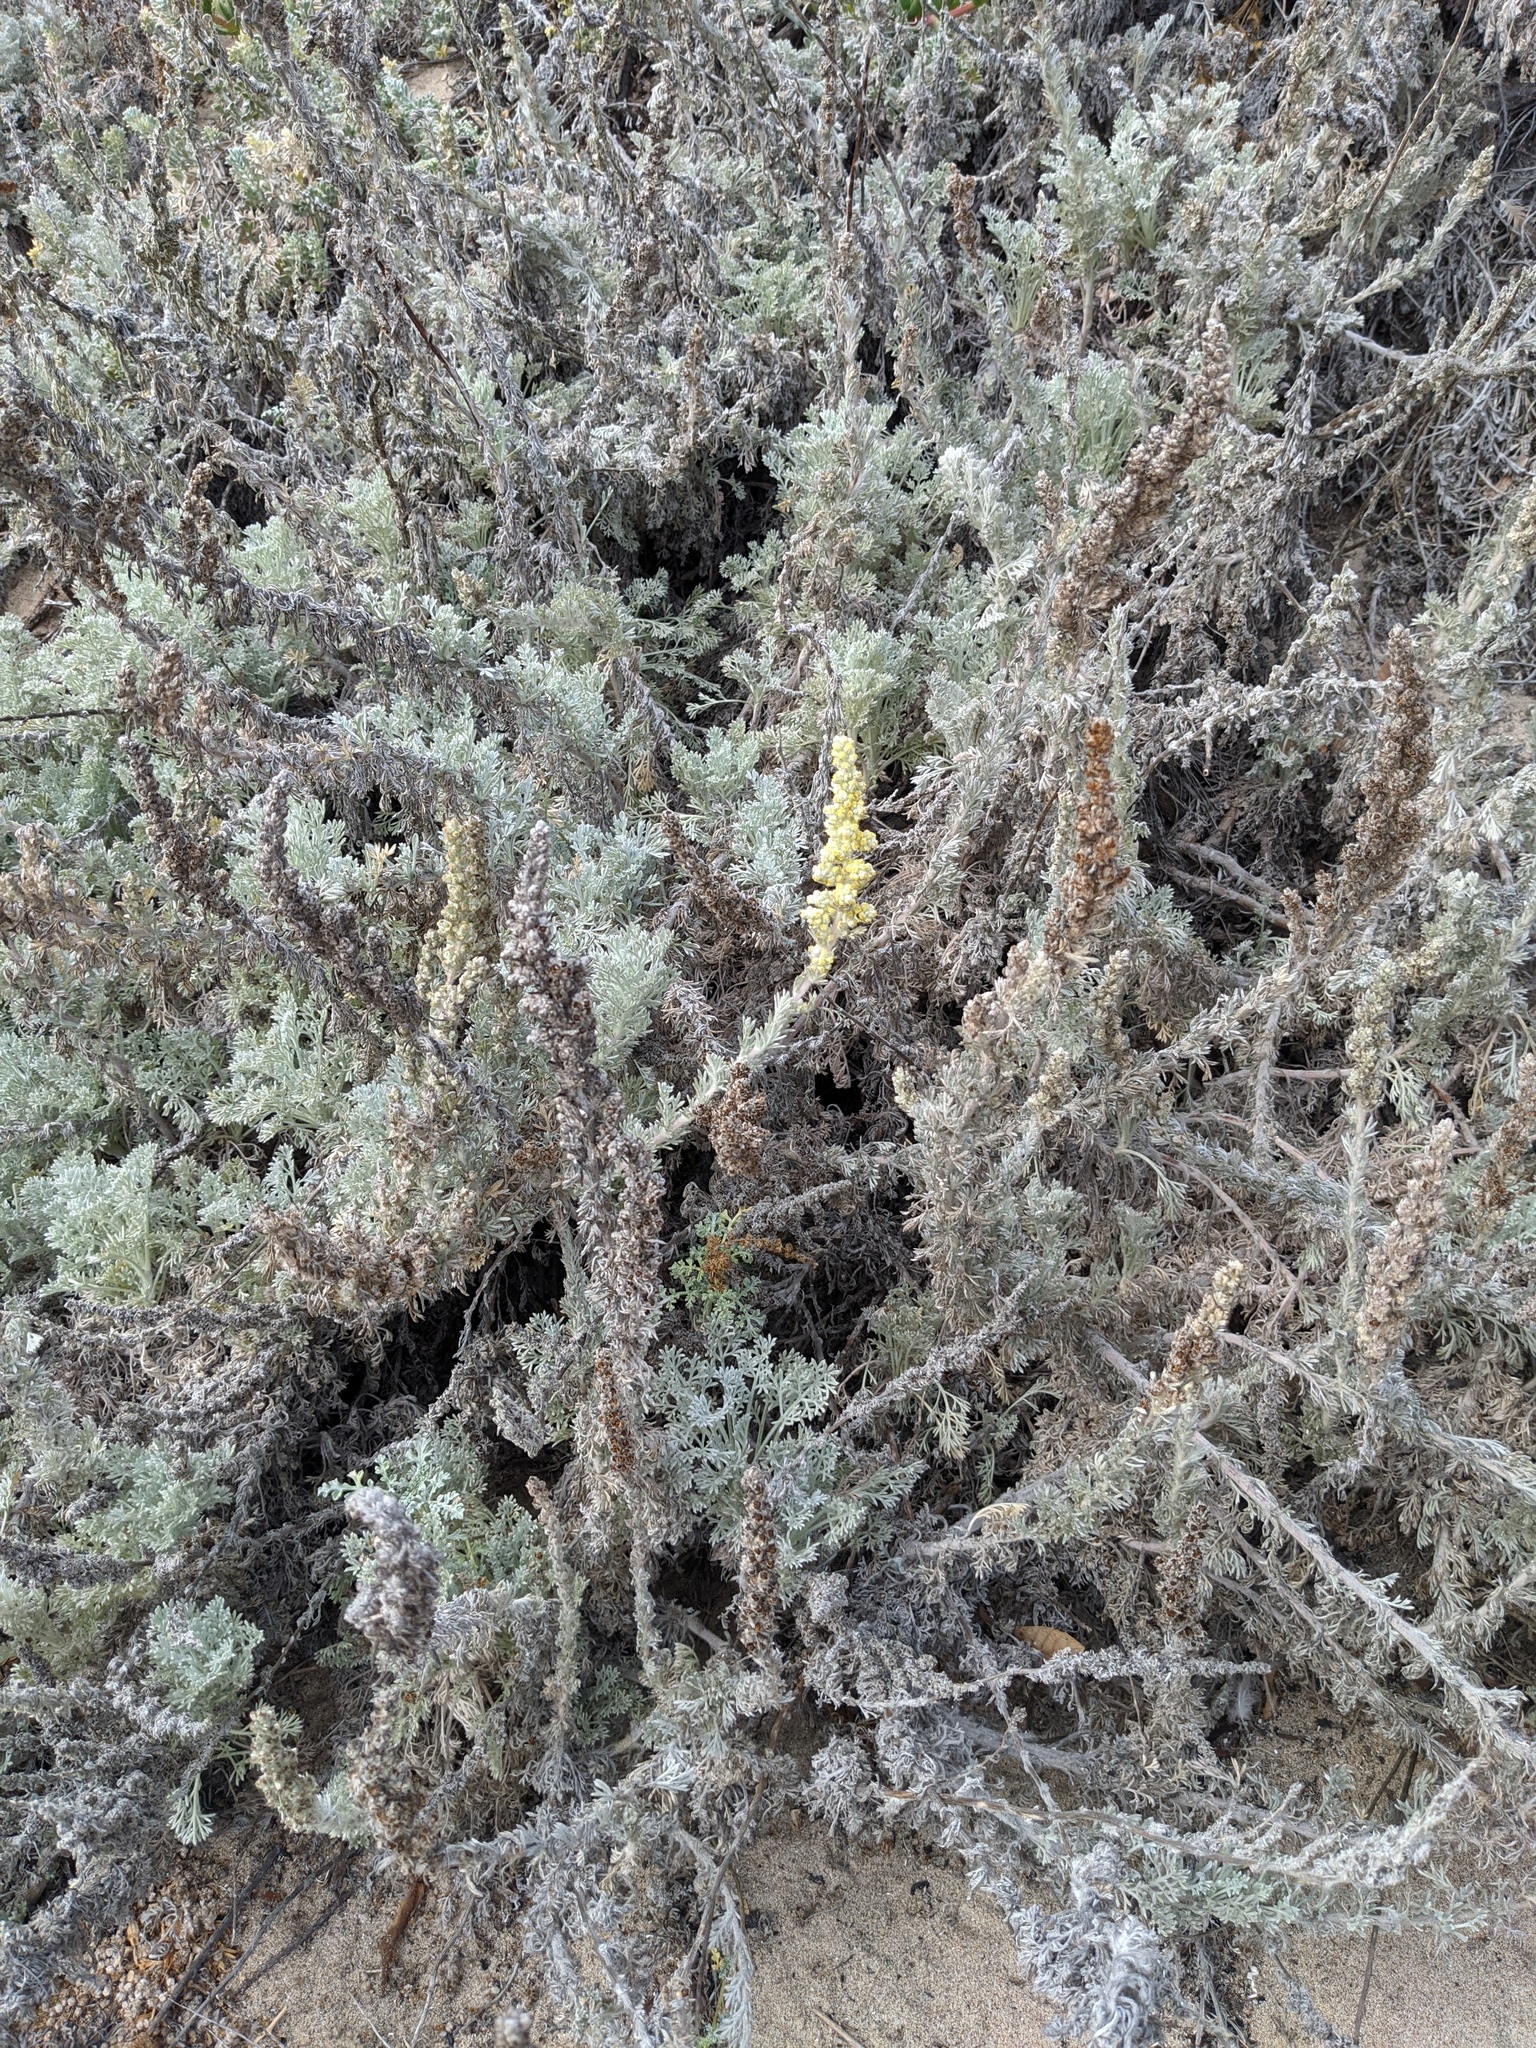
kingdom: Plantae
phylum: Tracheophyta
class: Magnoliopsida
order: Asterales
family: Asteraceae
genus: Artemisia
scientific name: Artemisia pycnocephala
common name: Coastal sagewort
